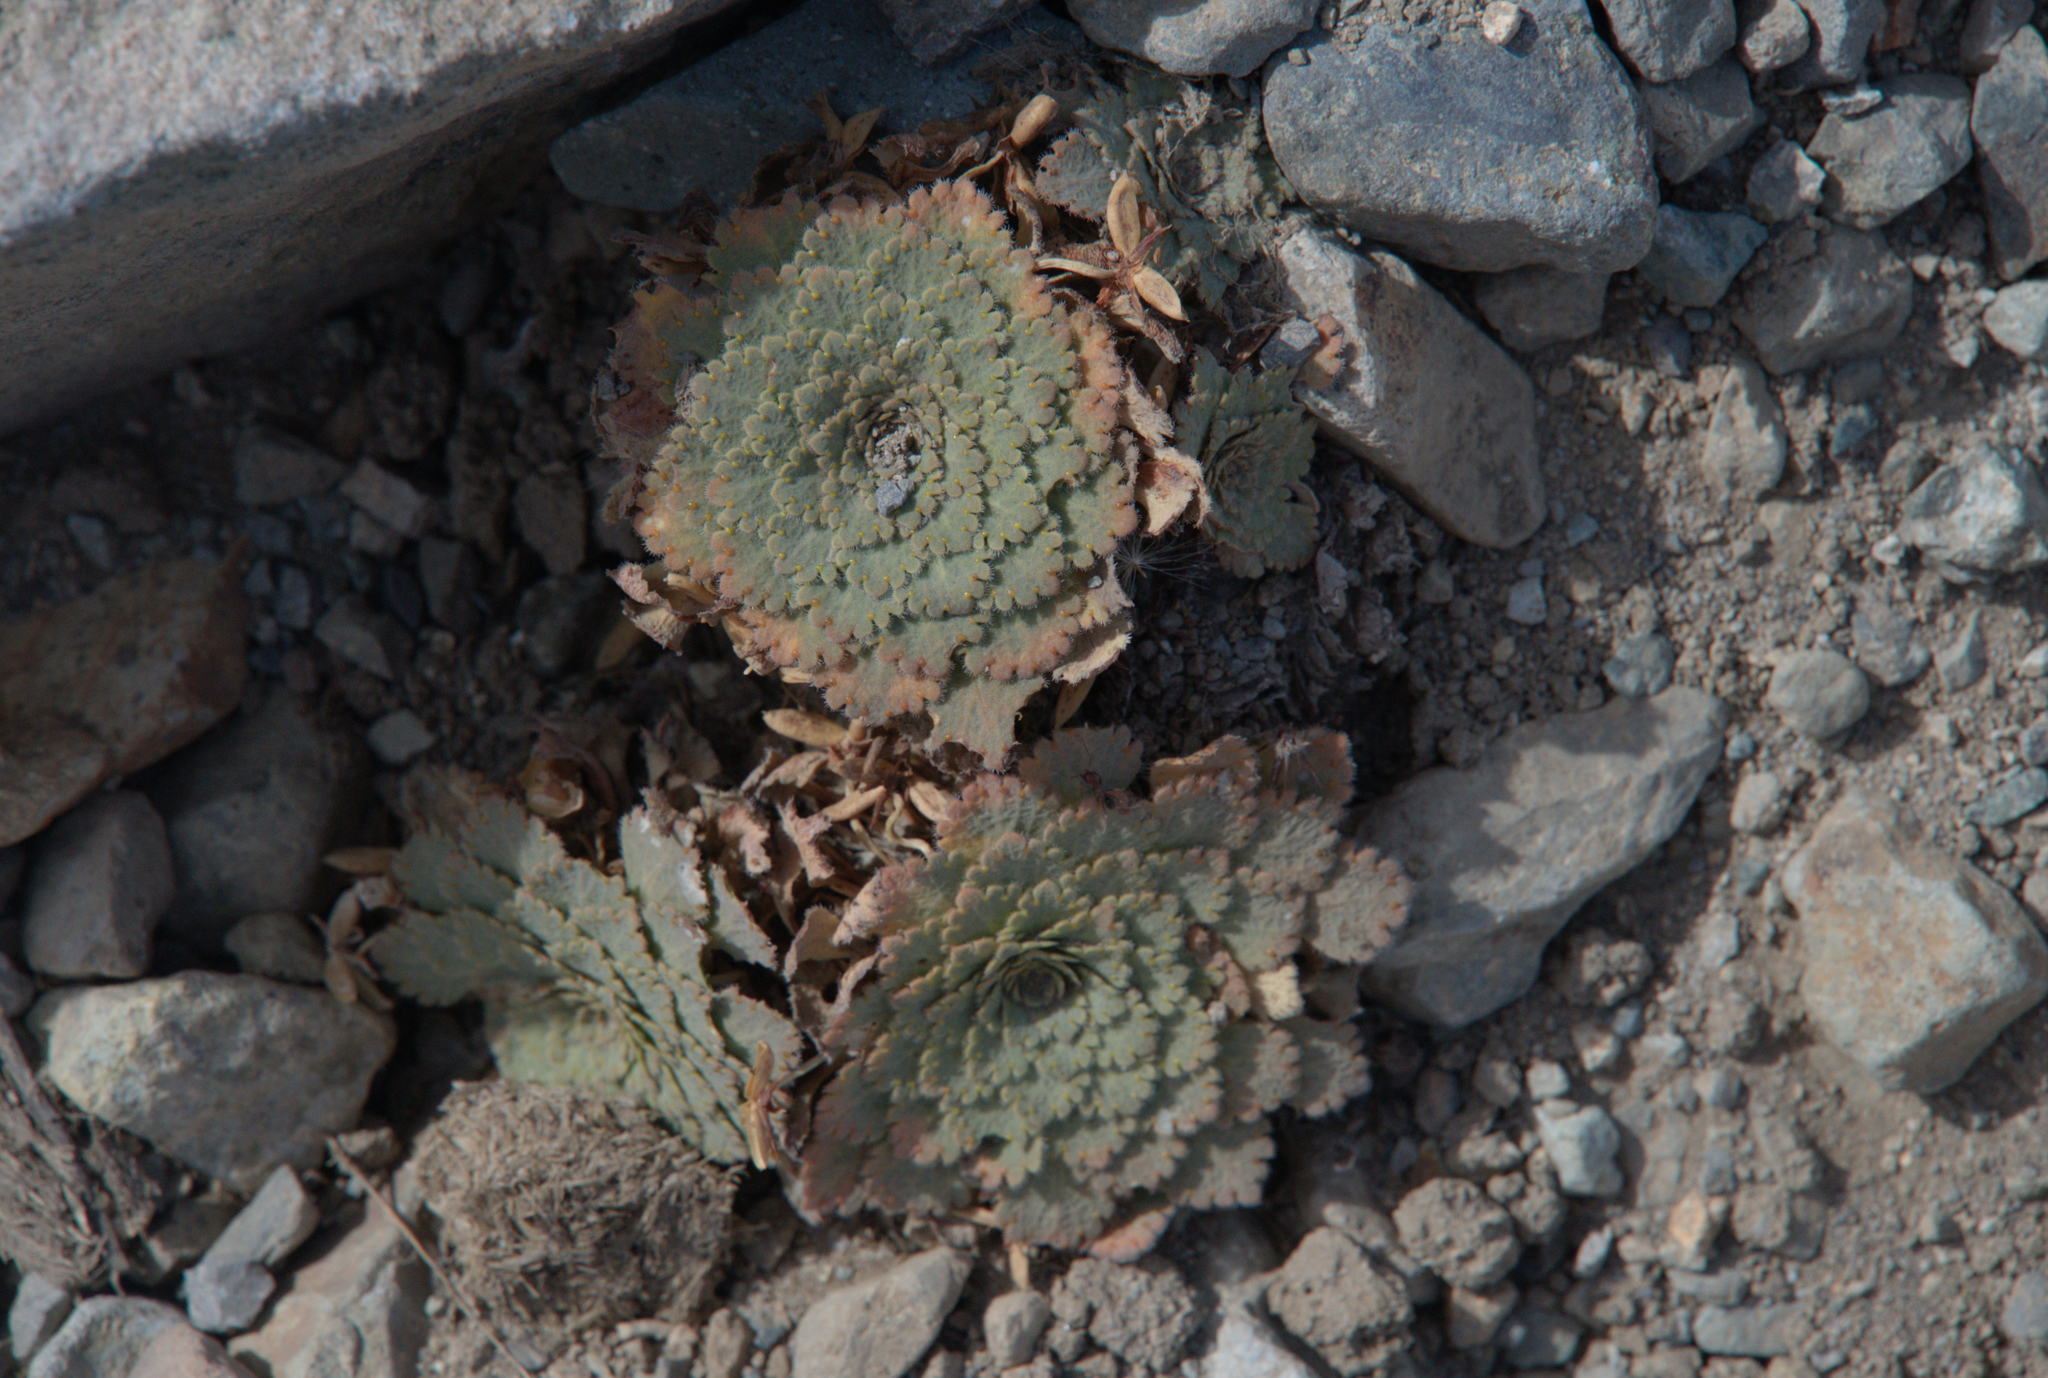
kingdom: Plantae
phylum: Tracheophyta
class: Magnoliopsida
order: Malpighiales
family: Violaceae
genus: Viola
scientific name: Viola congesta
